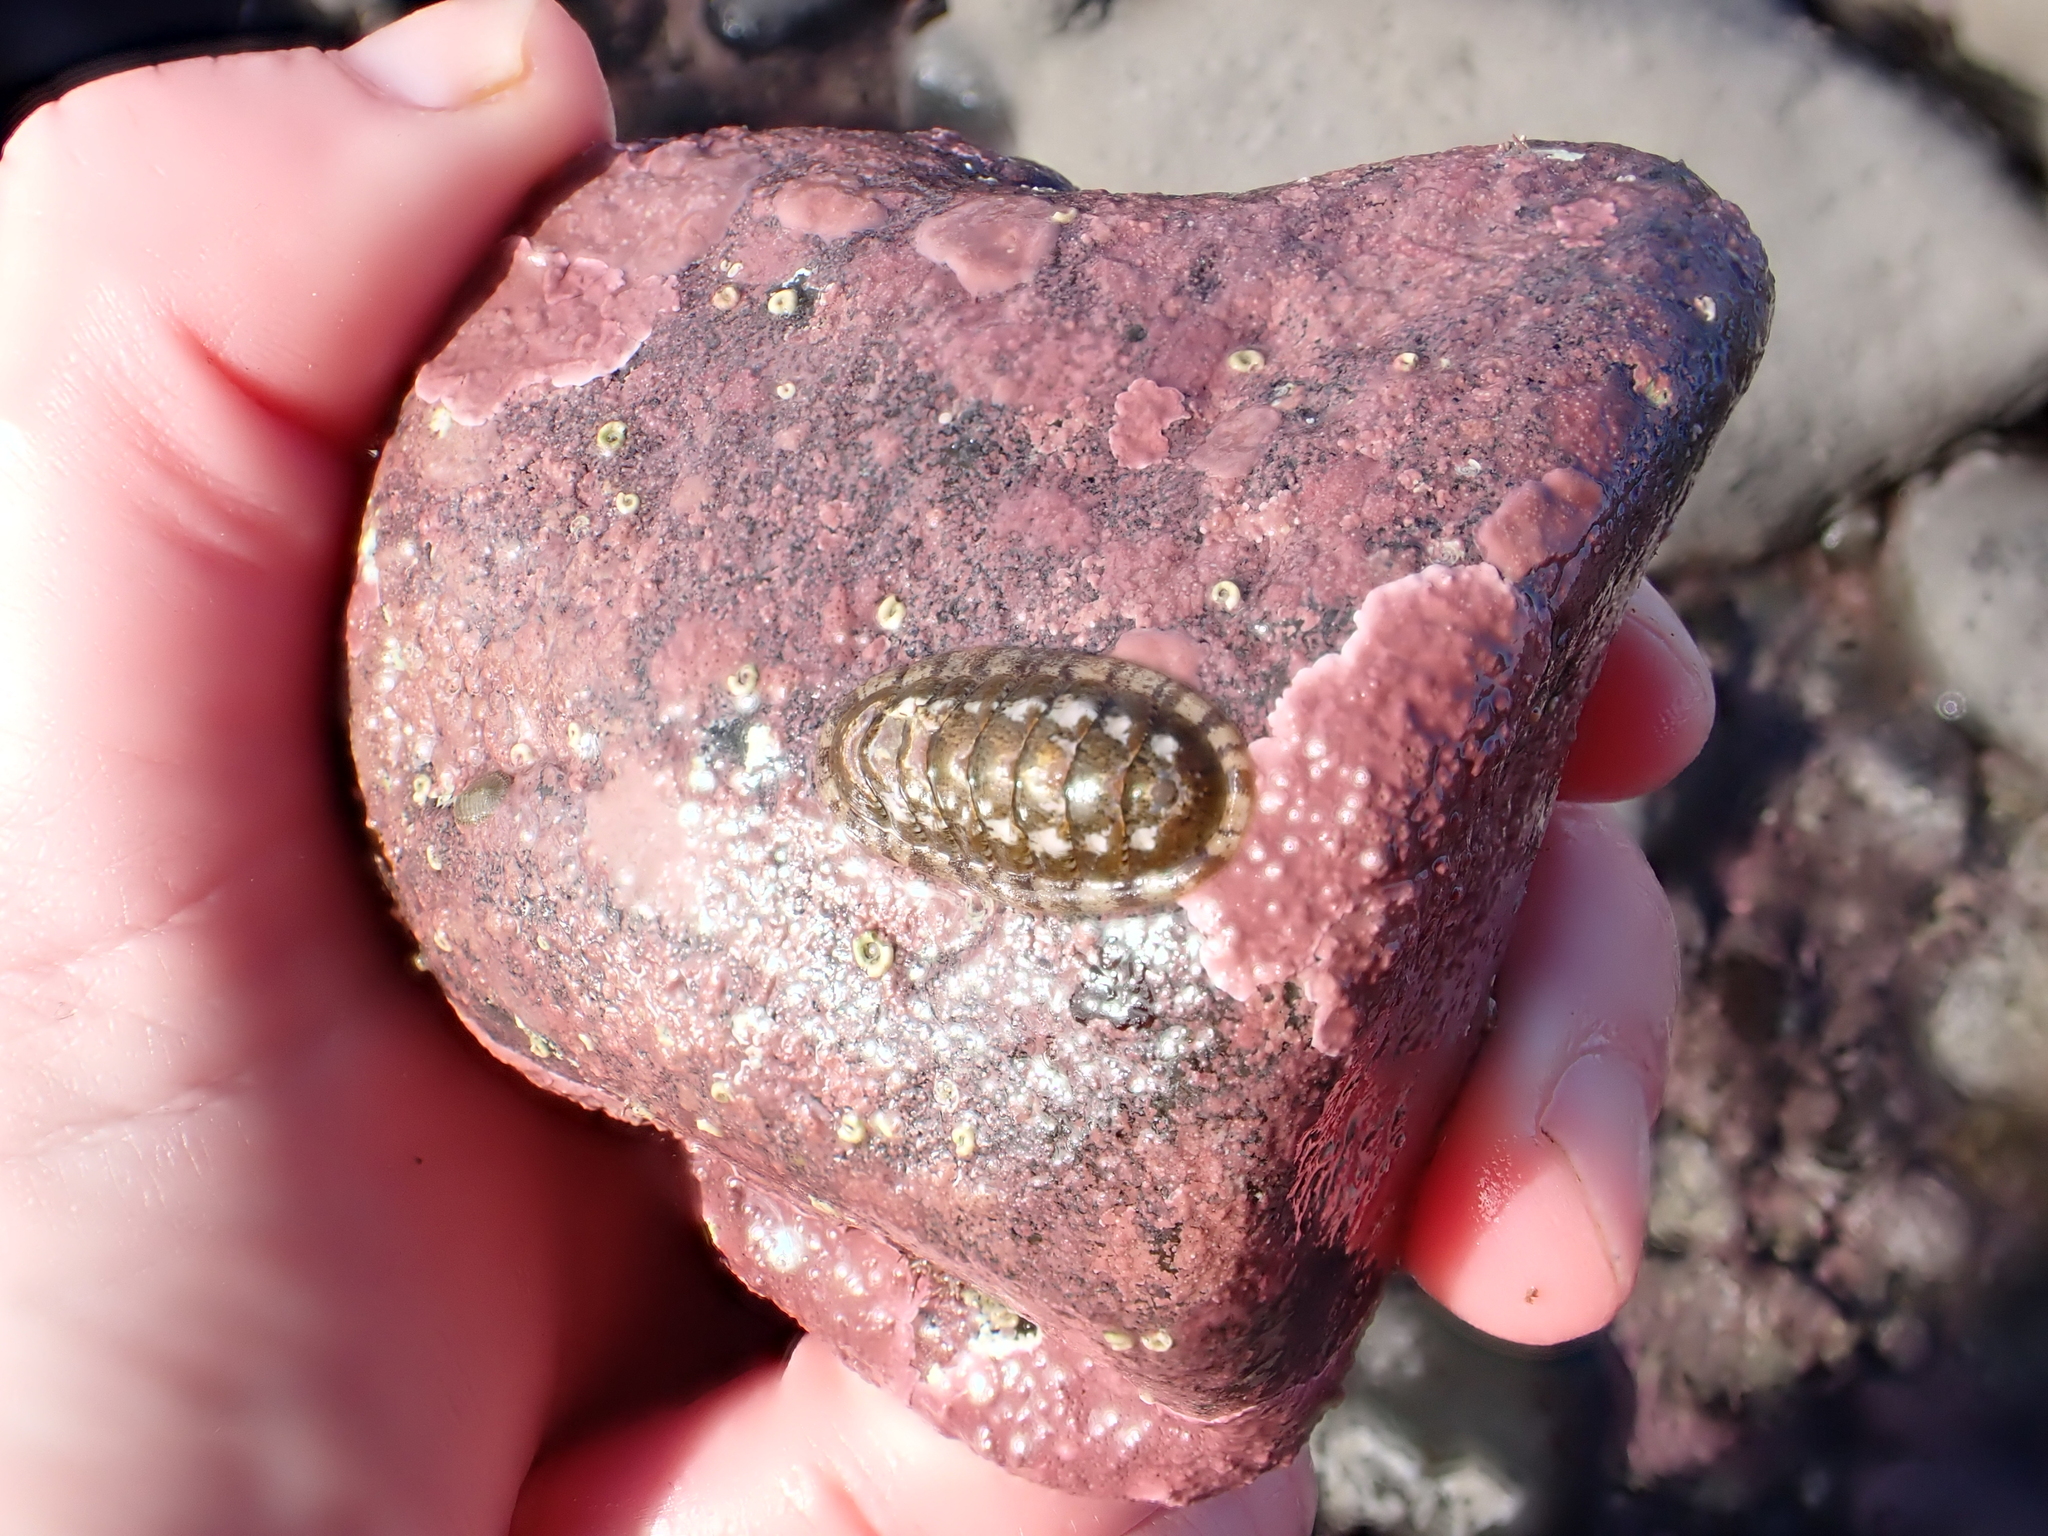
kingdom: Animalia
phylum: Mollusca
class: Polyplacophora
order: Chitonida
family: Ischnochitonidae
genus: Ischnochiton
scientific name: Ischnochiton maorianus
